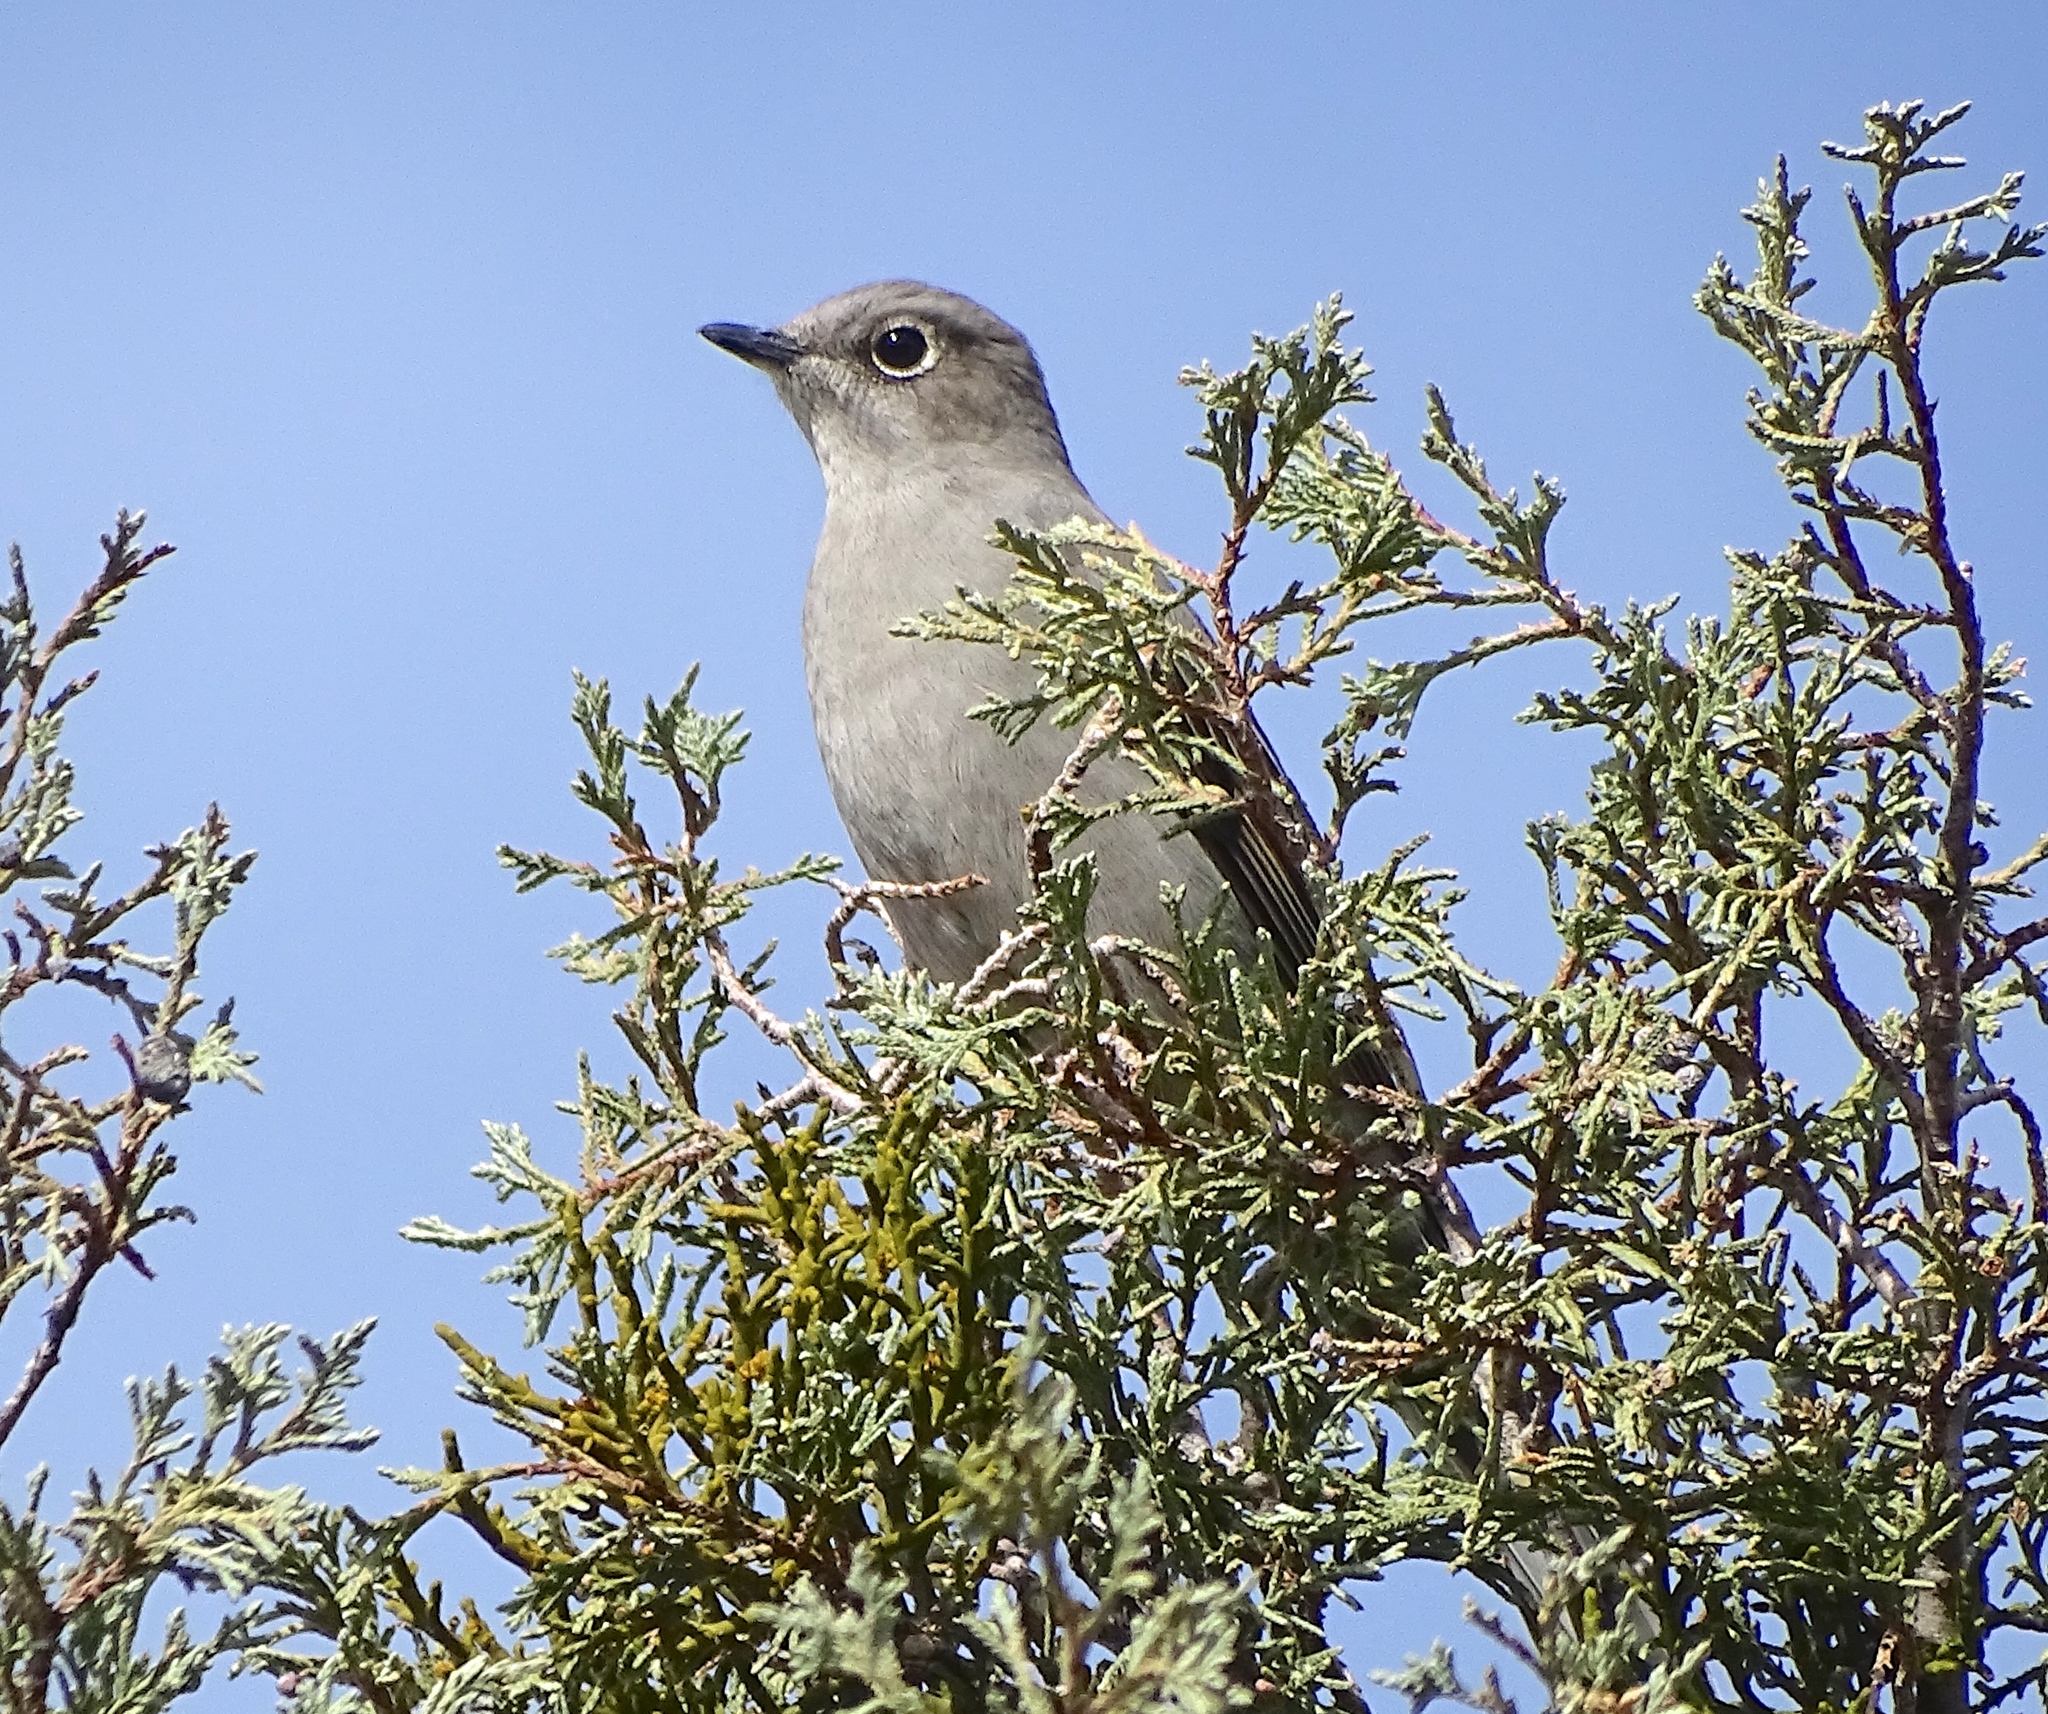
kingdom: Animalia
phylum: Chordata
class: Aves
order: Passeriformes
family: Turdidae
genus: Myadestes
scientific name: Myadestes townsendi
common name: Townsend's solitaire
